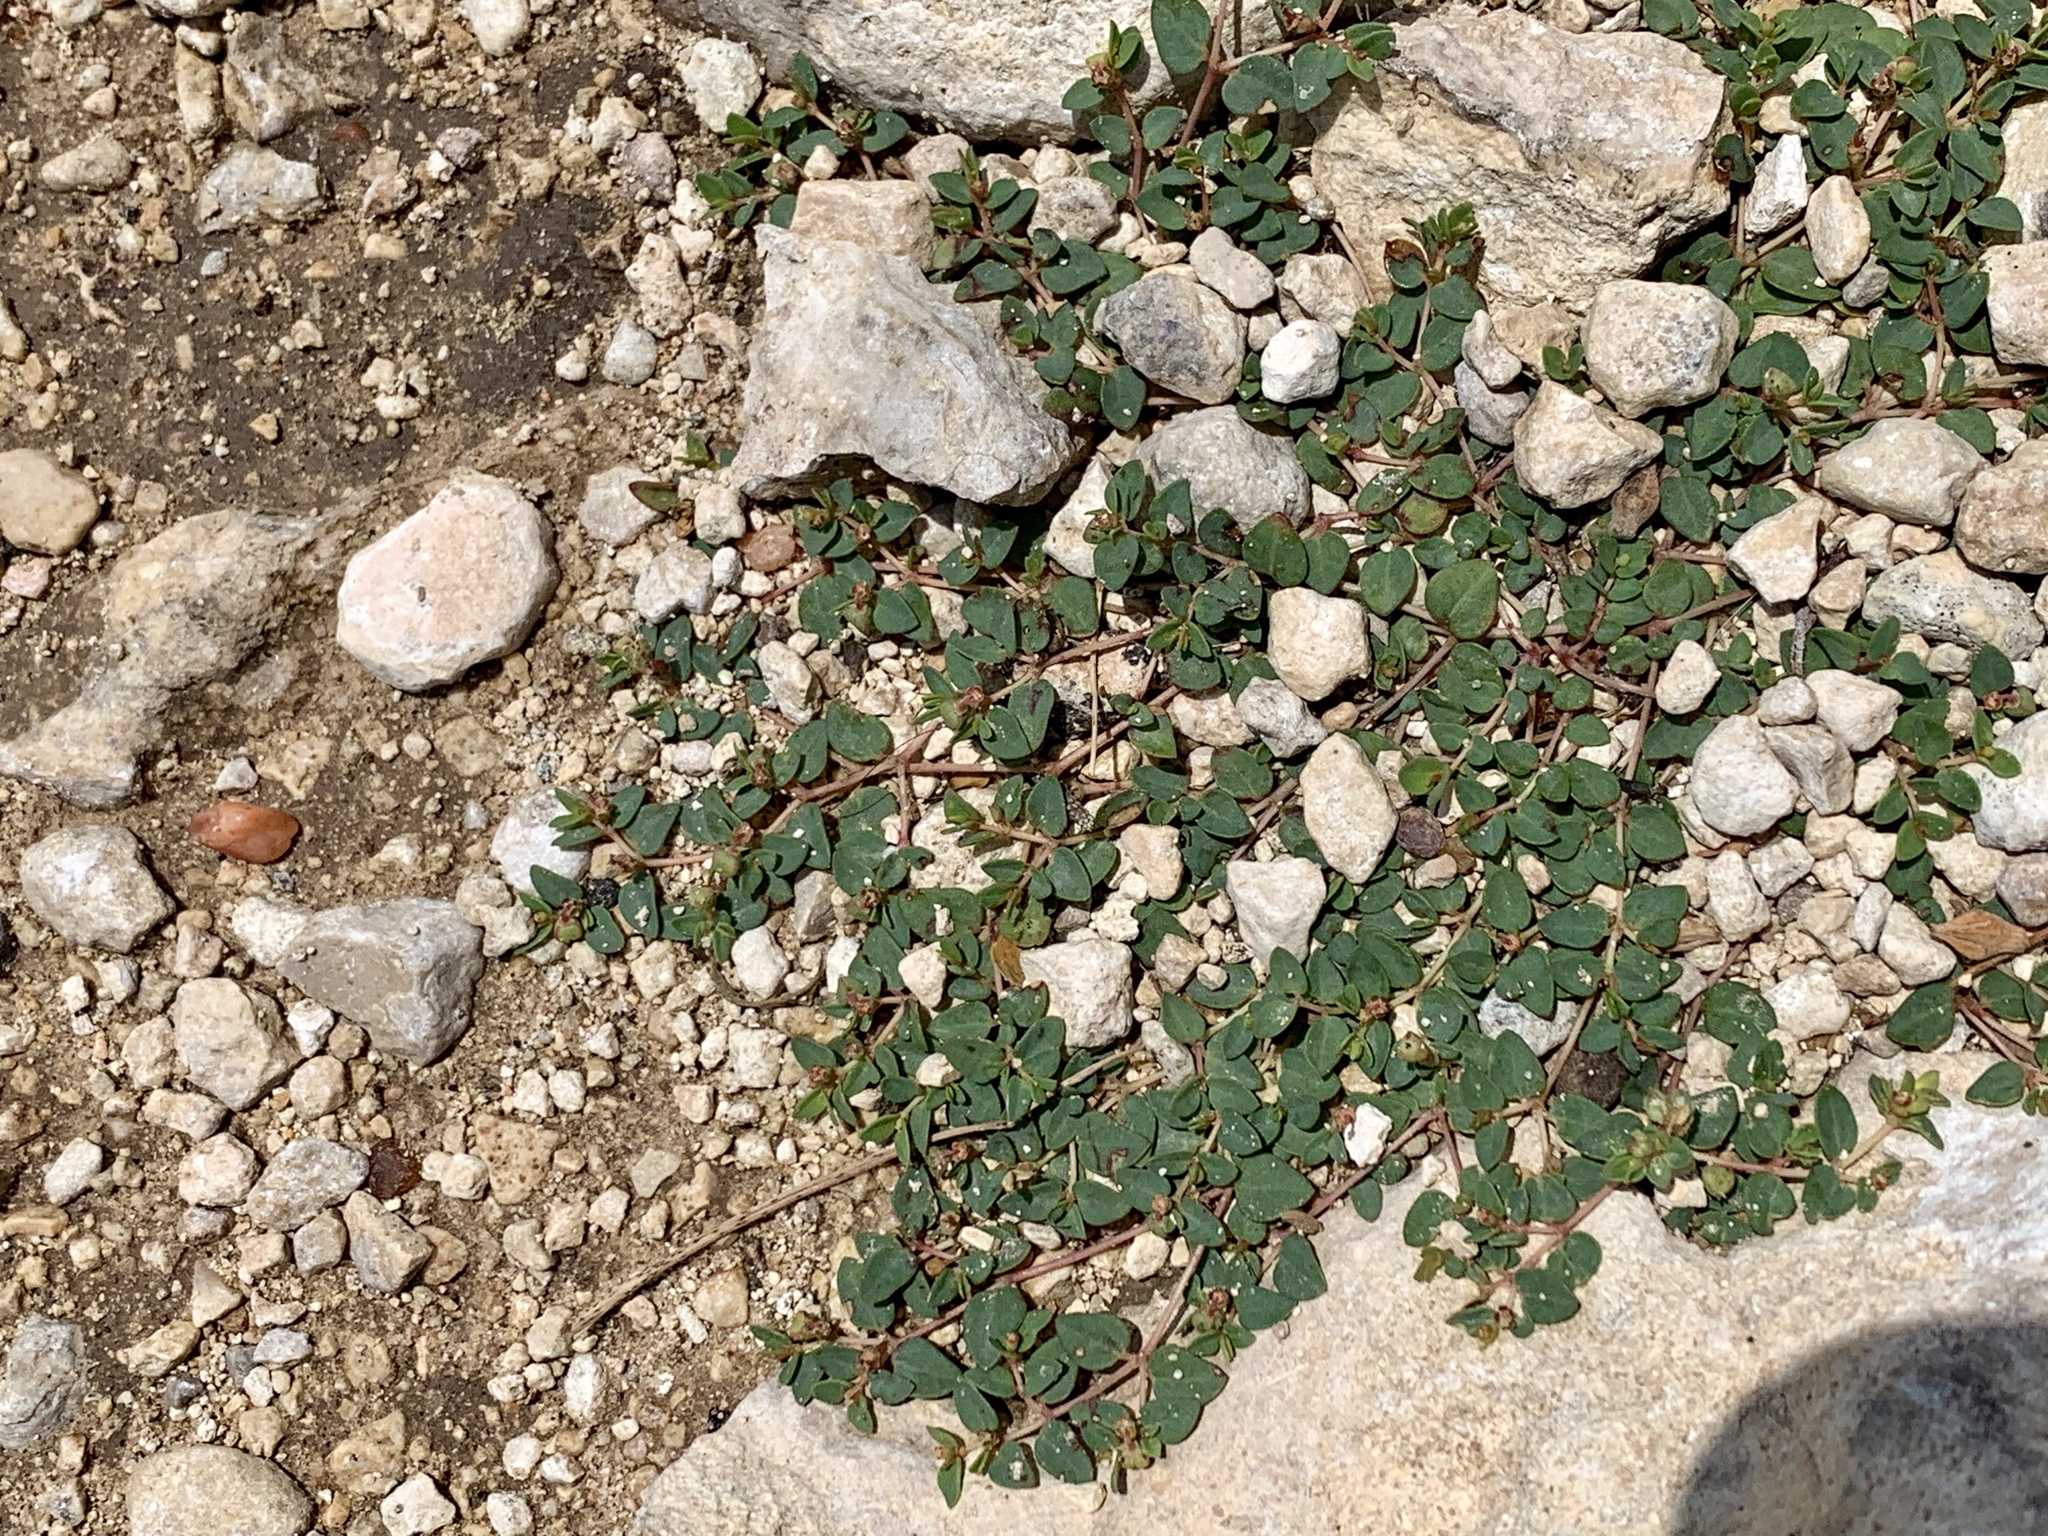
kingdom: Plantae
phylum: Tracheophyta
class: Magnoliopsida
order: Malpighiales
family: Euphorbiaceae
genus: Euphorbia
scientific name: Euphorbia fendleri
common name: Fendler's euphorbia
